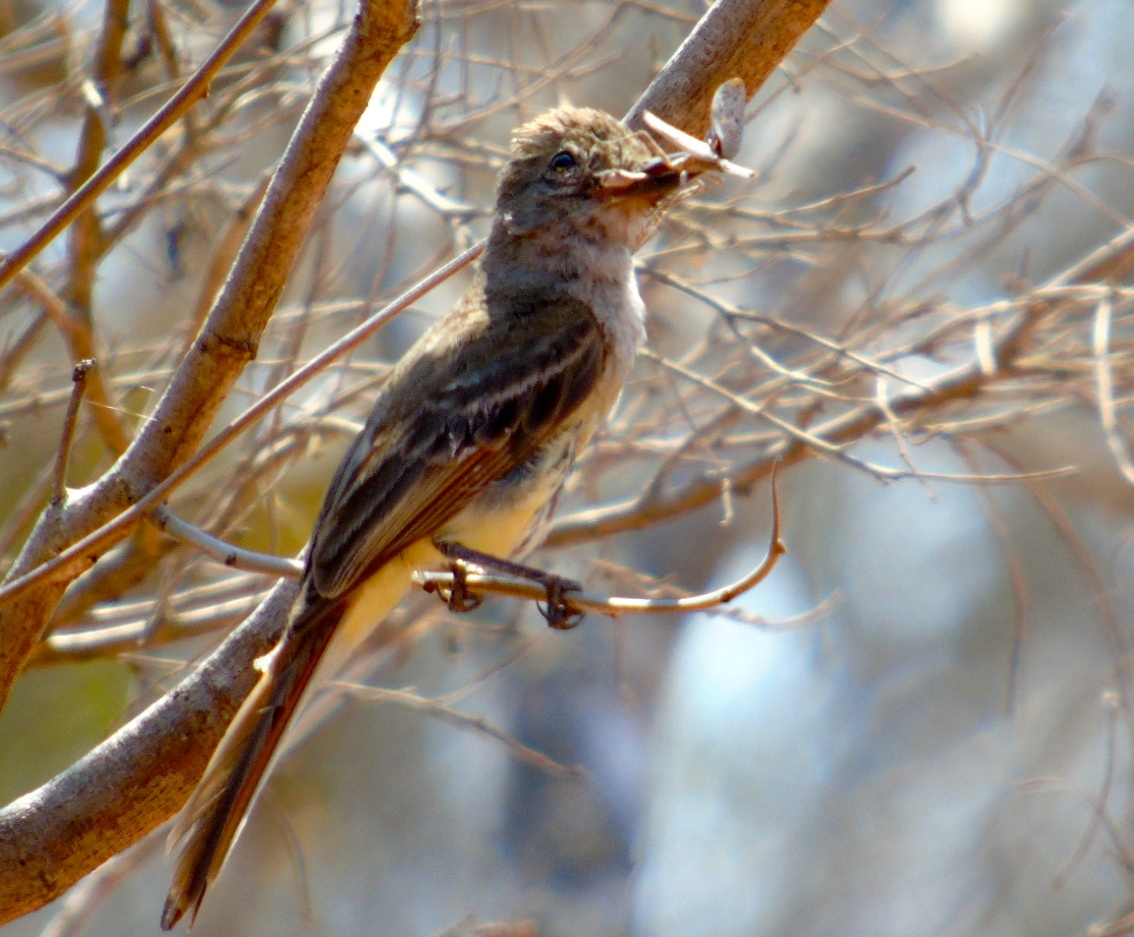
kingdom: Animalia
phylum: Chordata
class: Aves
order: Passeriformes
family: Tyrannidae
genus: Myiarchus
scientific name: Myiarchus
